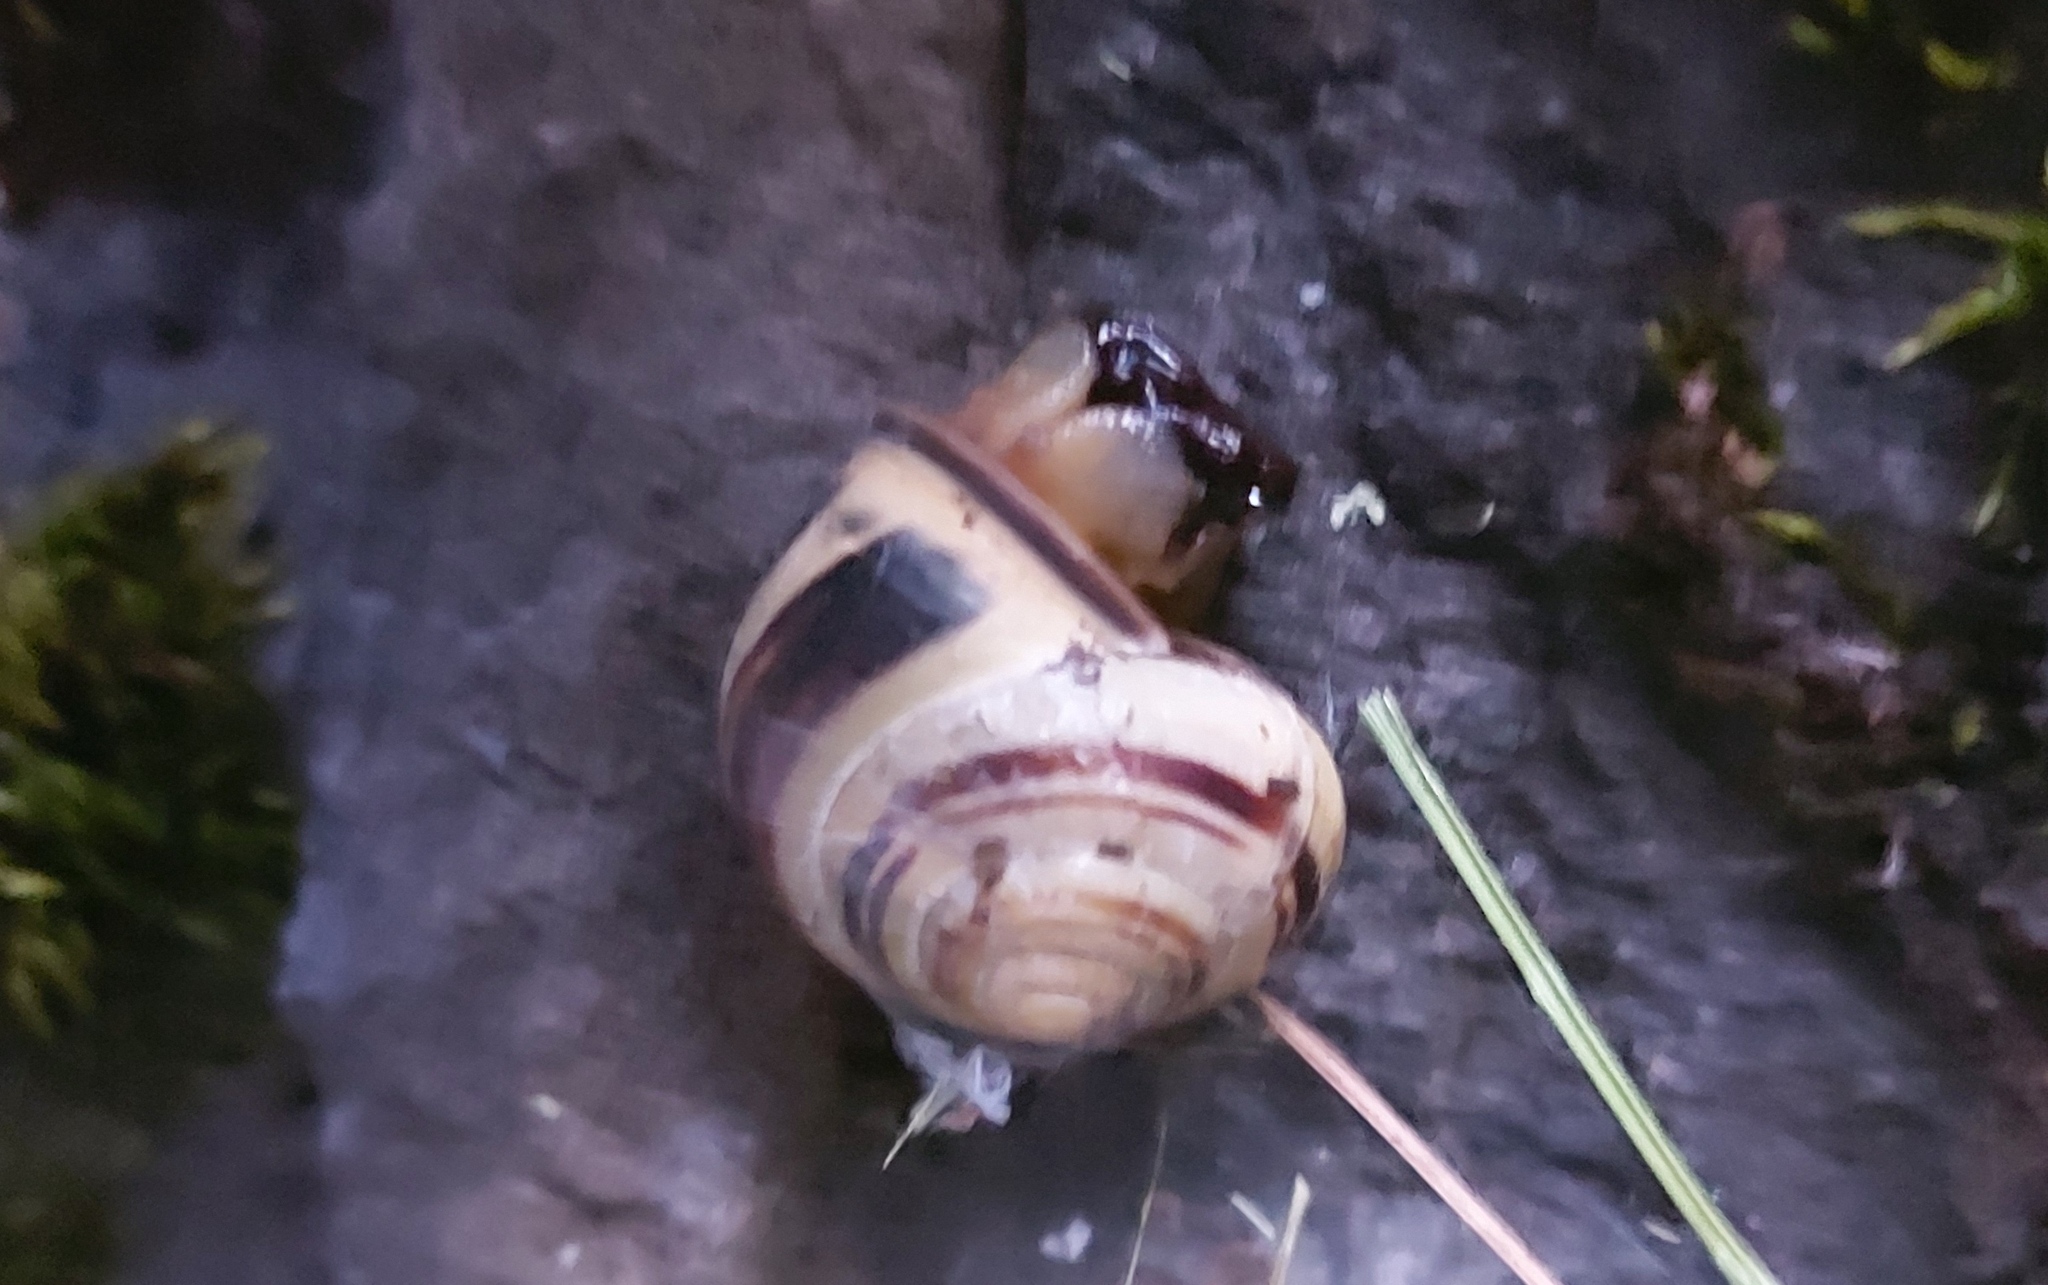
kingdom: Animalia
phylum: Mollusca
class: Gastropoda
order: Stylommatophora
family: Helicidae
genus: Cepaea
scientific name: Cepaea nemoralis
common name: Grovesnail
